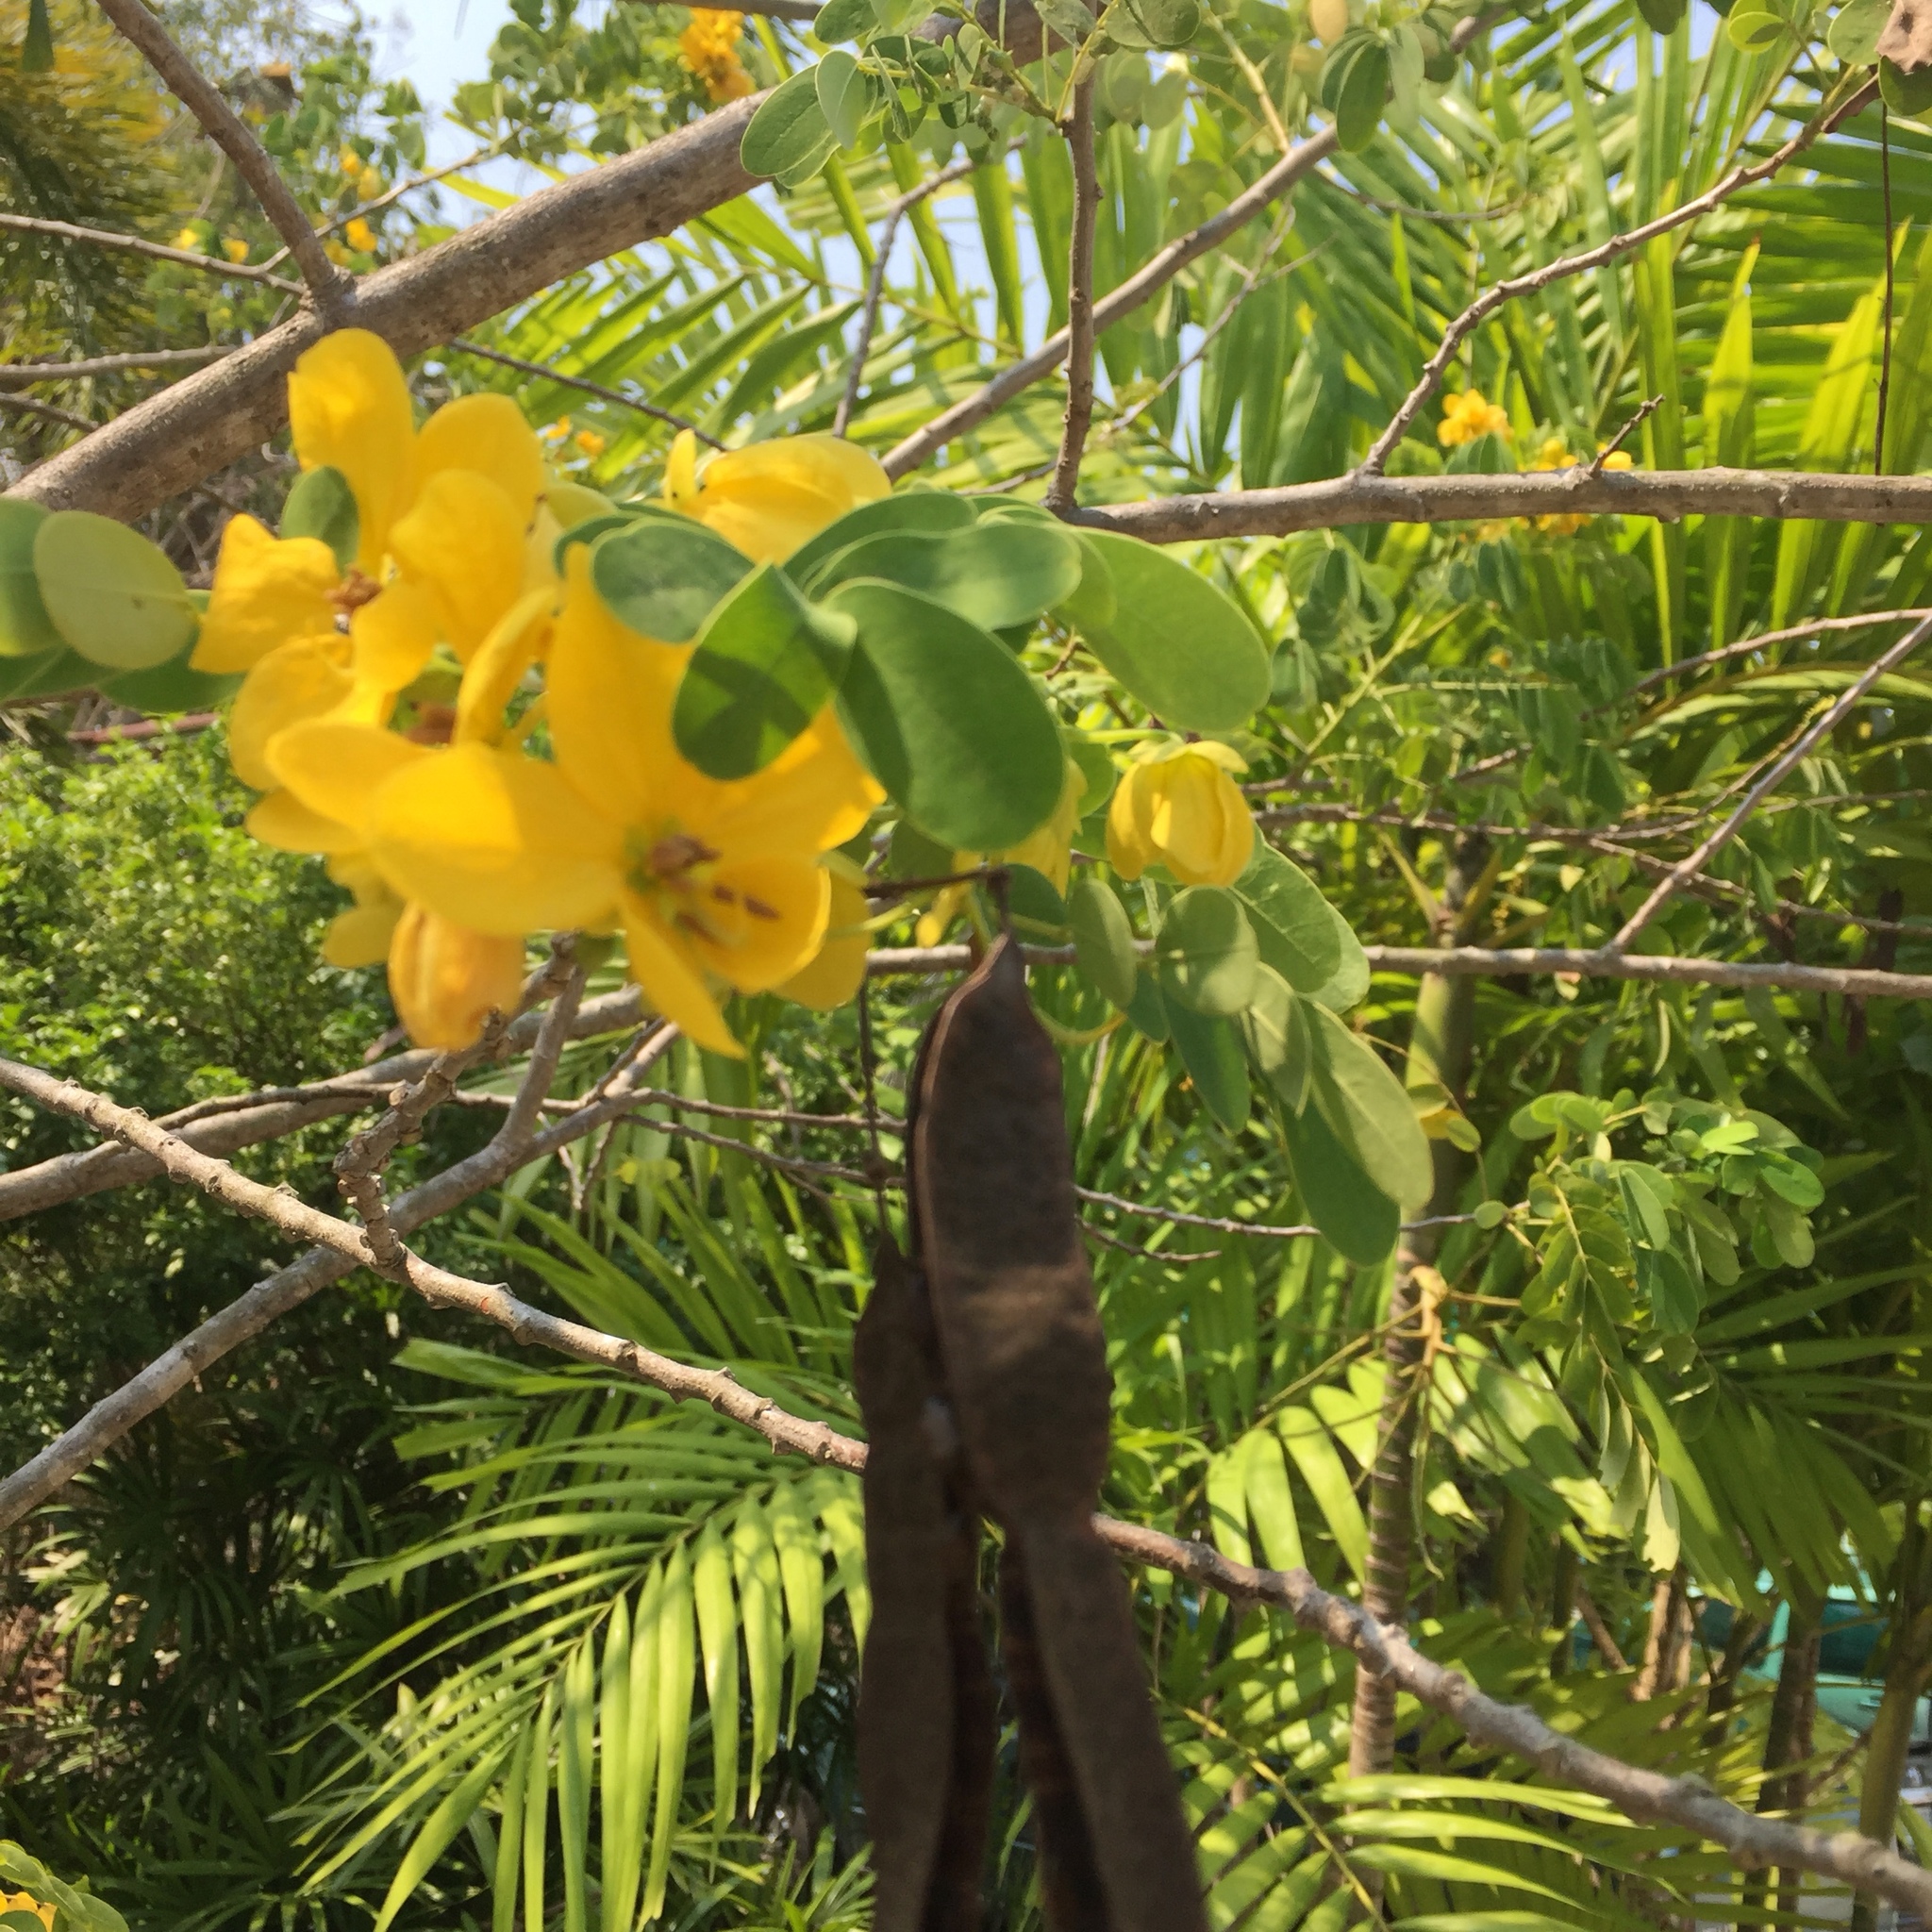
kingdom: Plantae
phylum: Tracheophyta
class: Magnoliopsida
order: Fabales
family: Fabaceae
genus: Senna
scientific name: Senna surattensis
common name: Glossy shower
